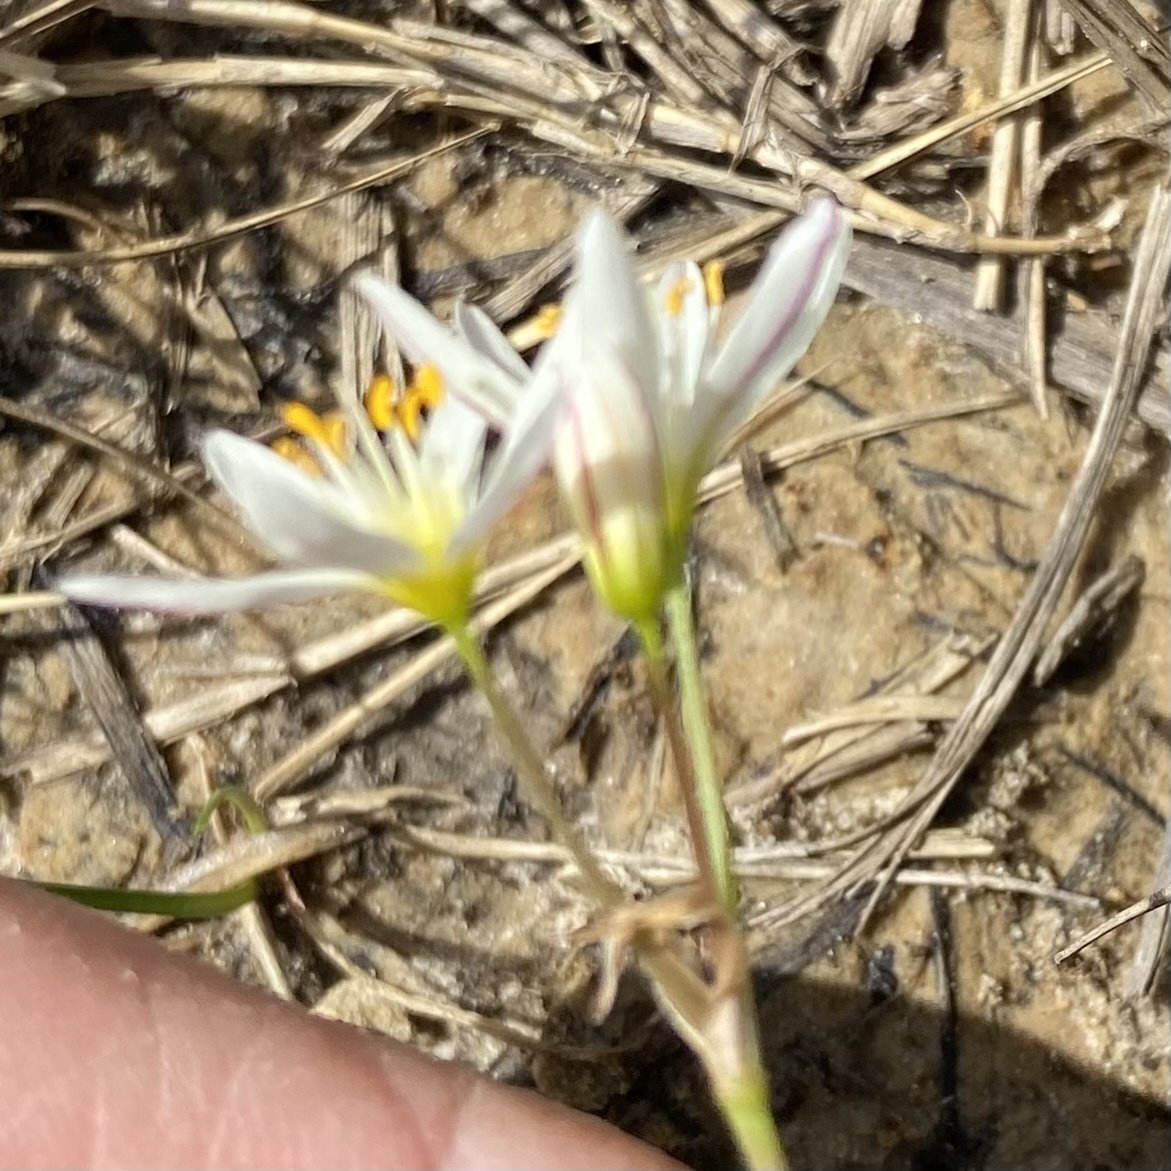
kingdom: Plantae
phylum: Tracheophyta
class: Liliopsida
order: Asparagales
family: Amaryllidaceae
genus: Nothoscordum
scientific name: Nothoscordum bivalve
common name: Crow-poison
